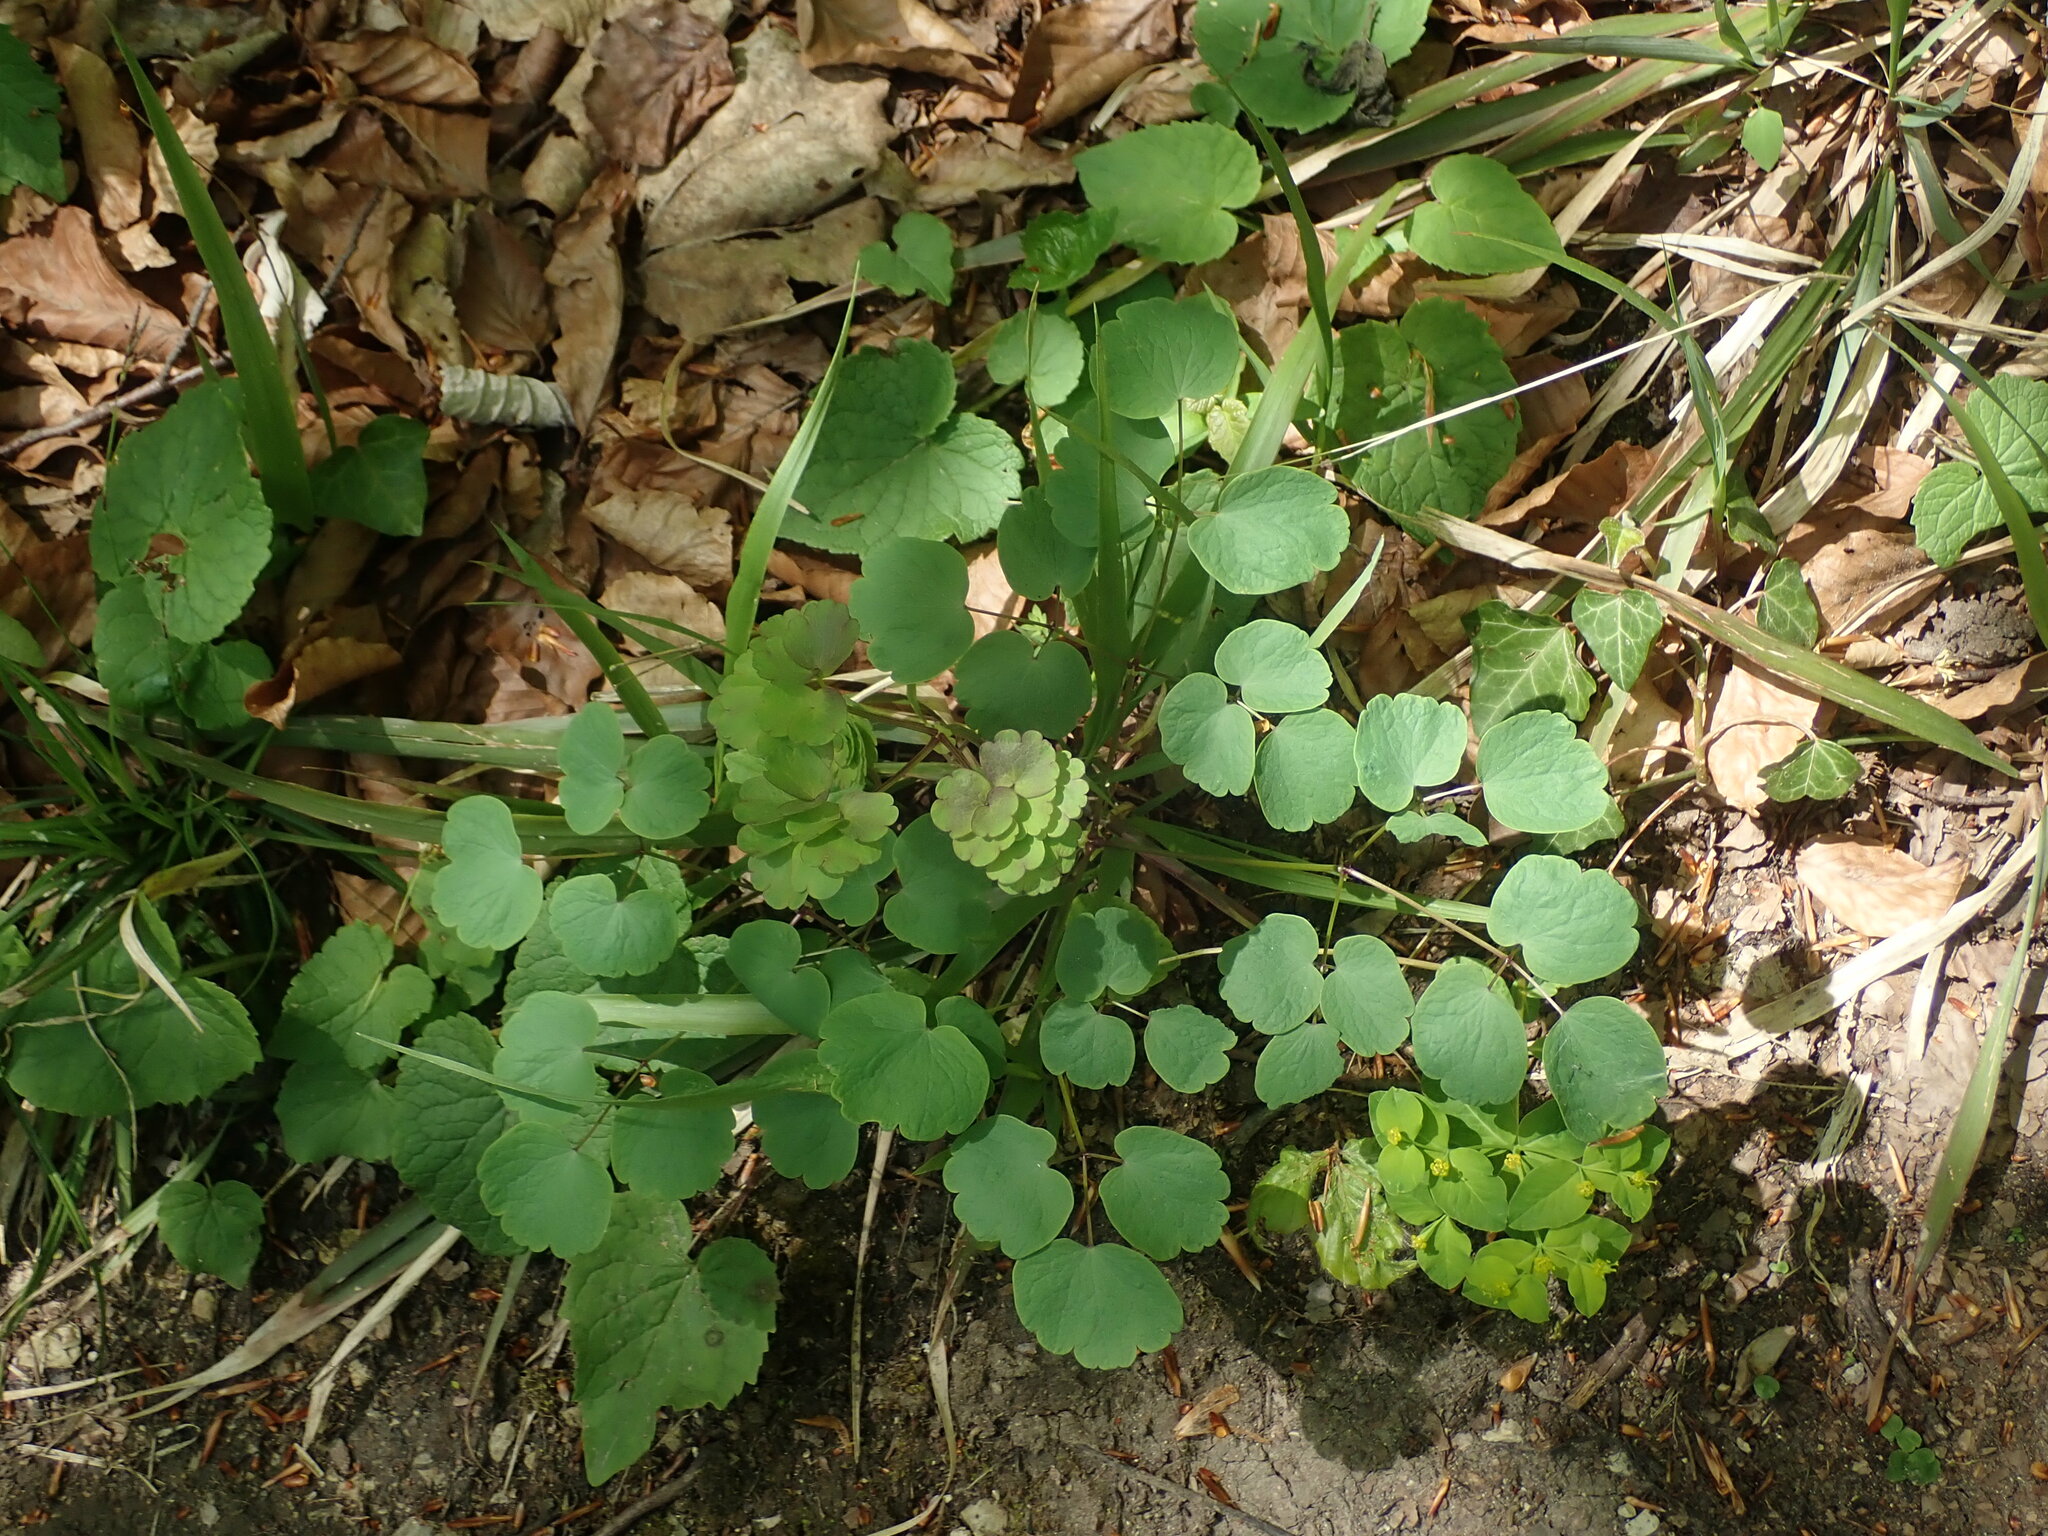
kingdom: Plantae
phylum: Tracheophyta
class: Magnoliopsida
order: Ranunculales
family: Ranunculaceae
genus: Thalictrum
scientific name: Thalictrum aquilegiifolium
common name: French meadow-rue
